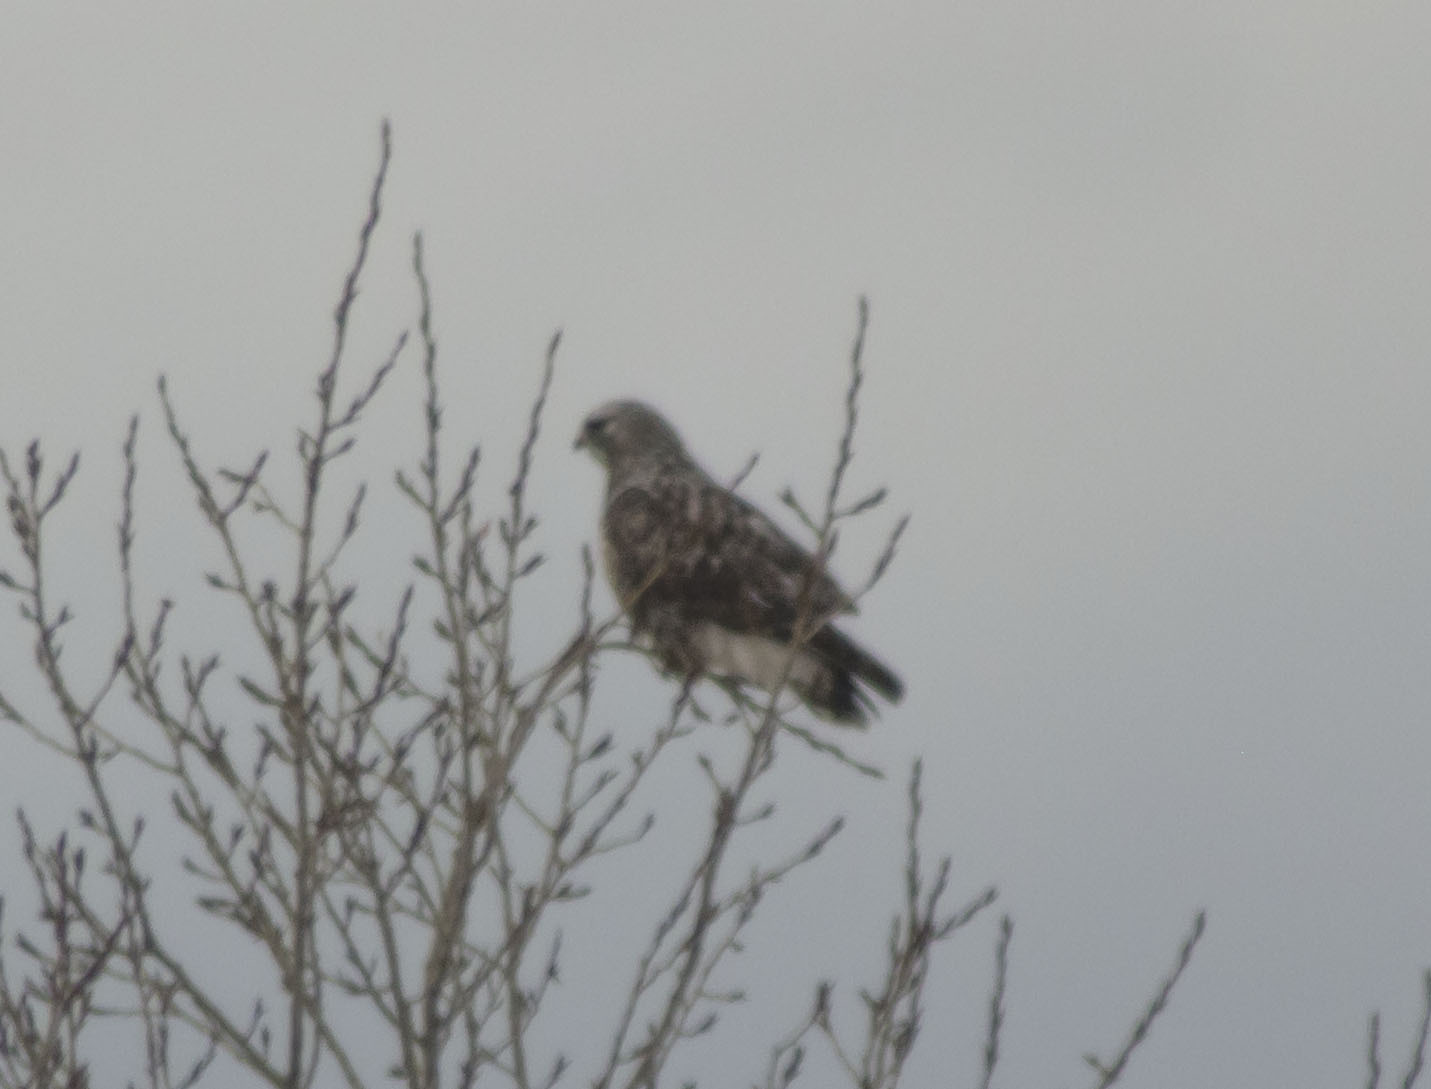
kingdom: Animalia
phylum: Chordata
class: Aves
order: Accipitriformes
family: Accipitridae
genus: Buteo
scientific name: Buteo lagopus
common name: Rough-legged buzzard
